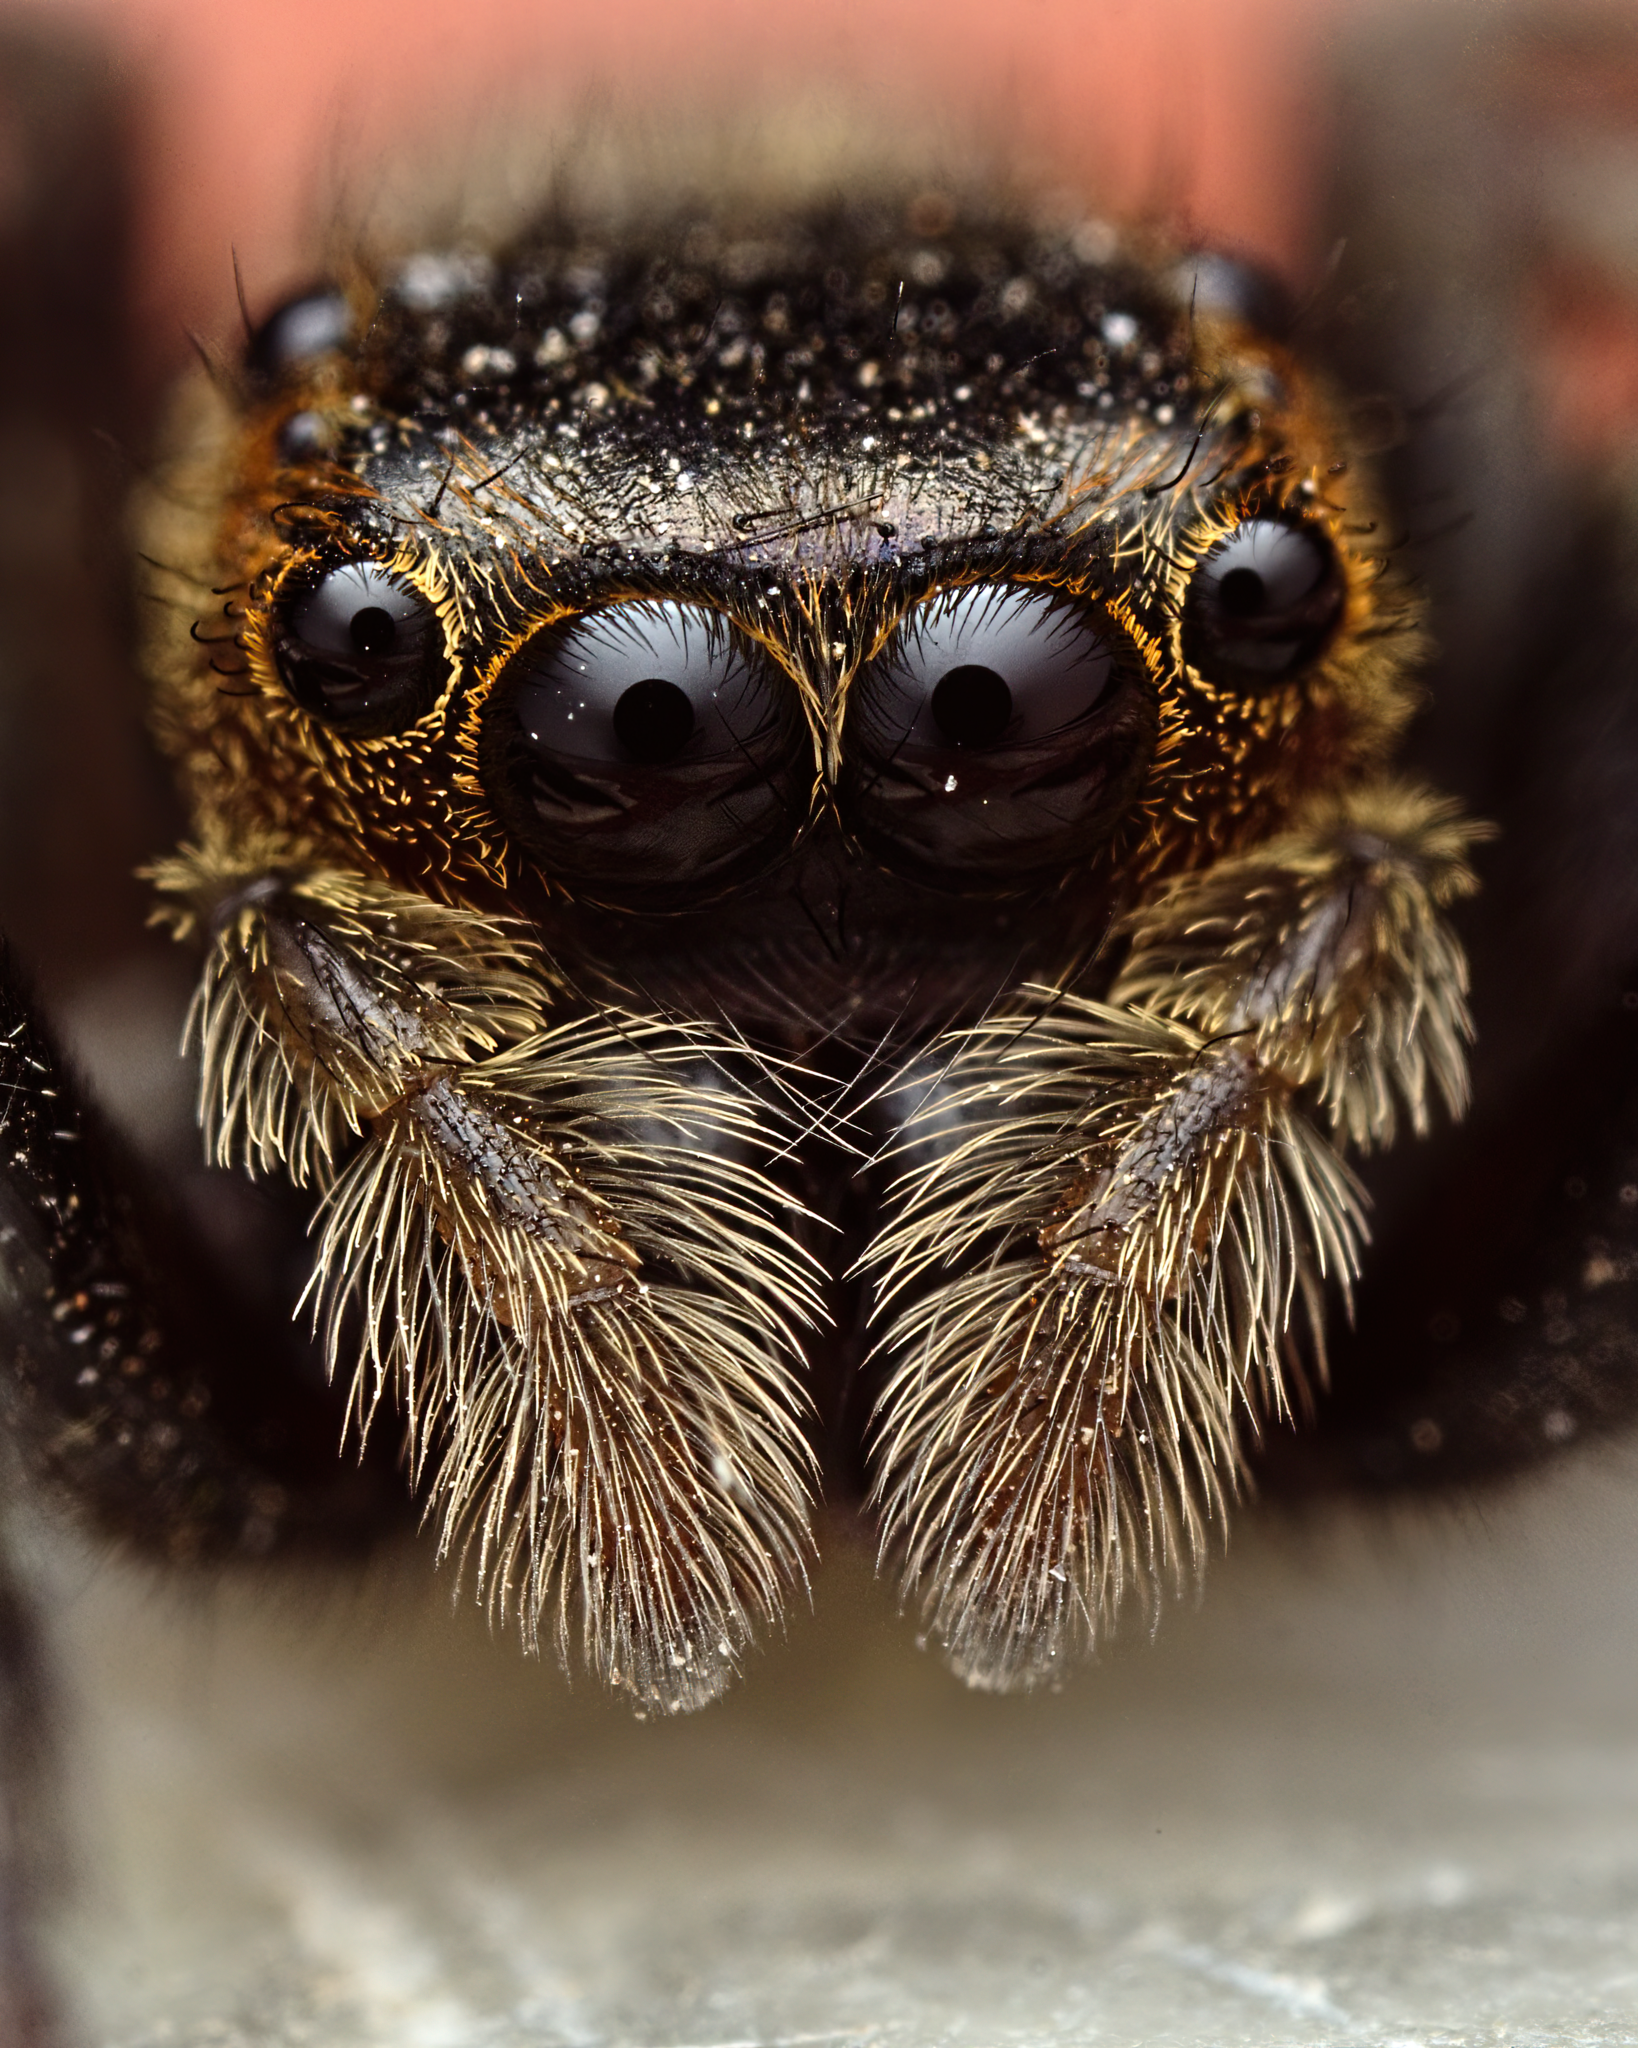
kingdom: Animalia
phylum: Arthropoda
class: Arachnida
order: Araneae
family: Salticidae
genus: Hasarius
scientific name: Hasarius adansoni
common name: Jumping spider
